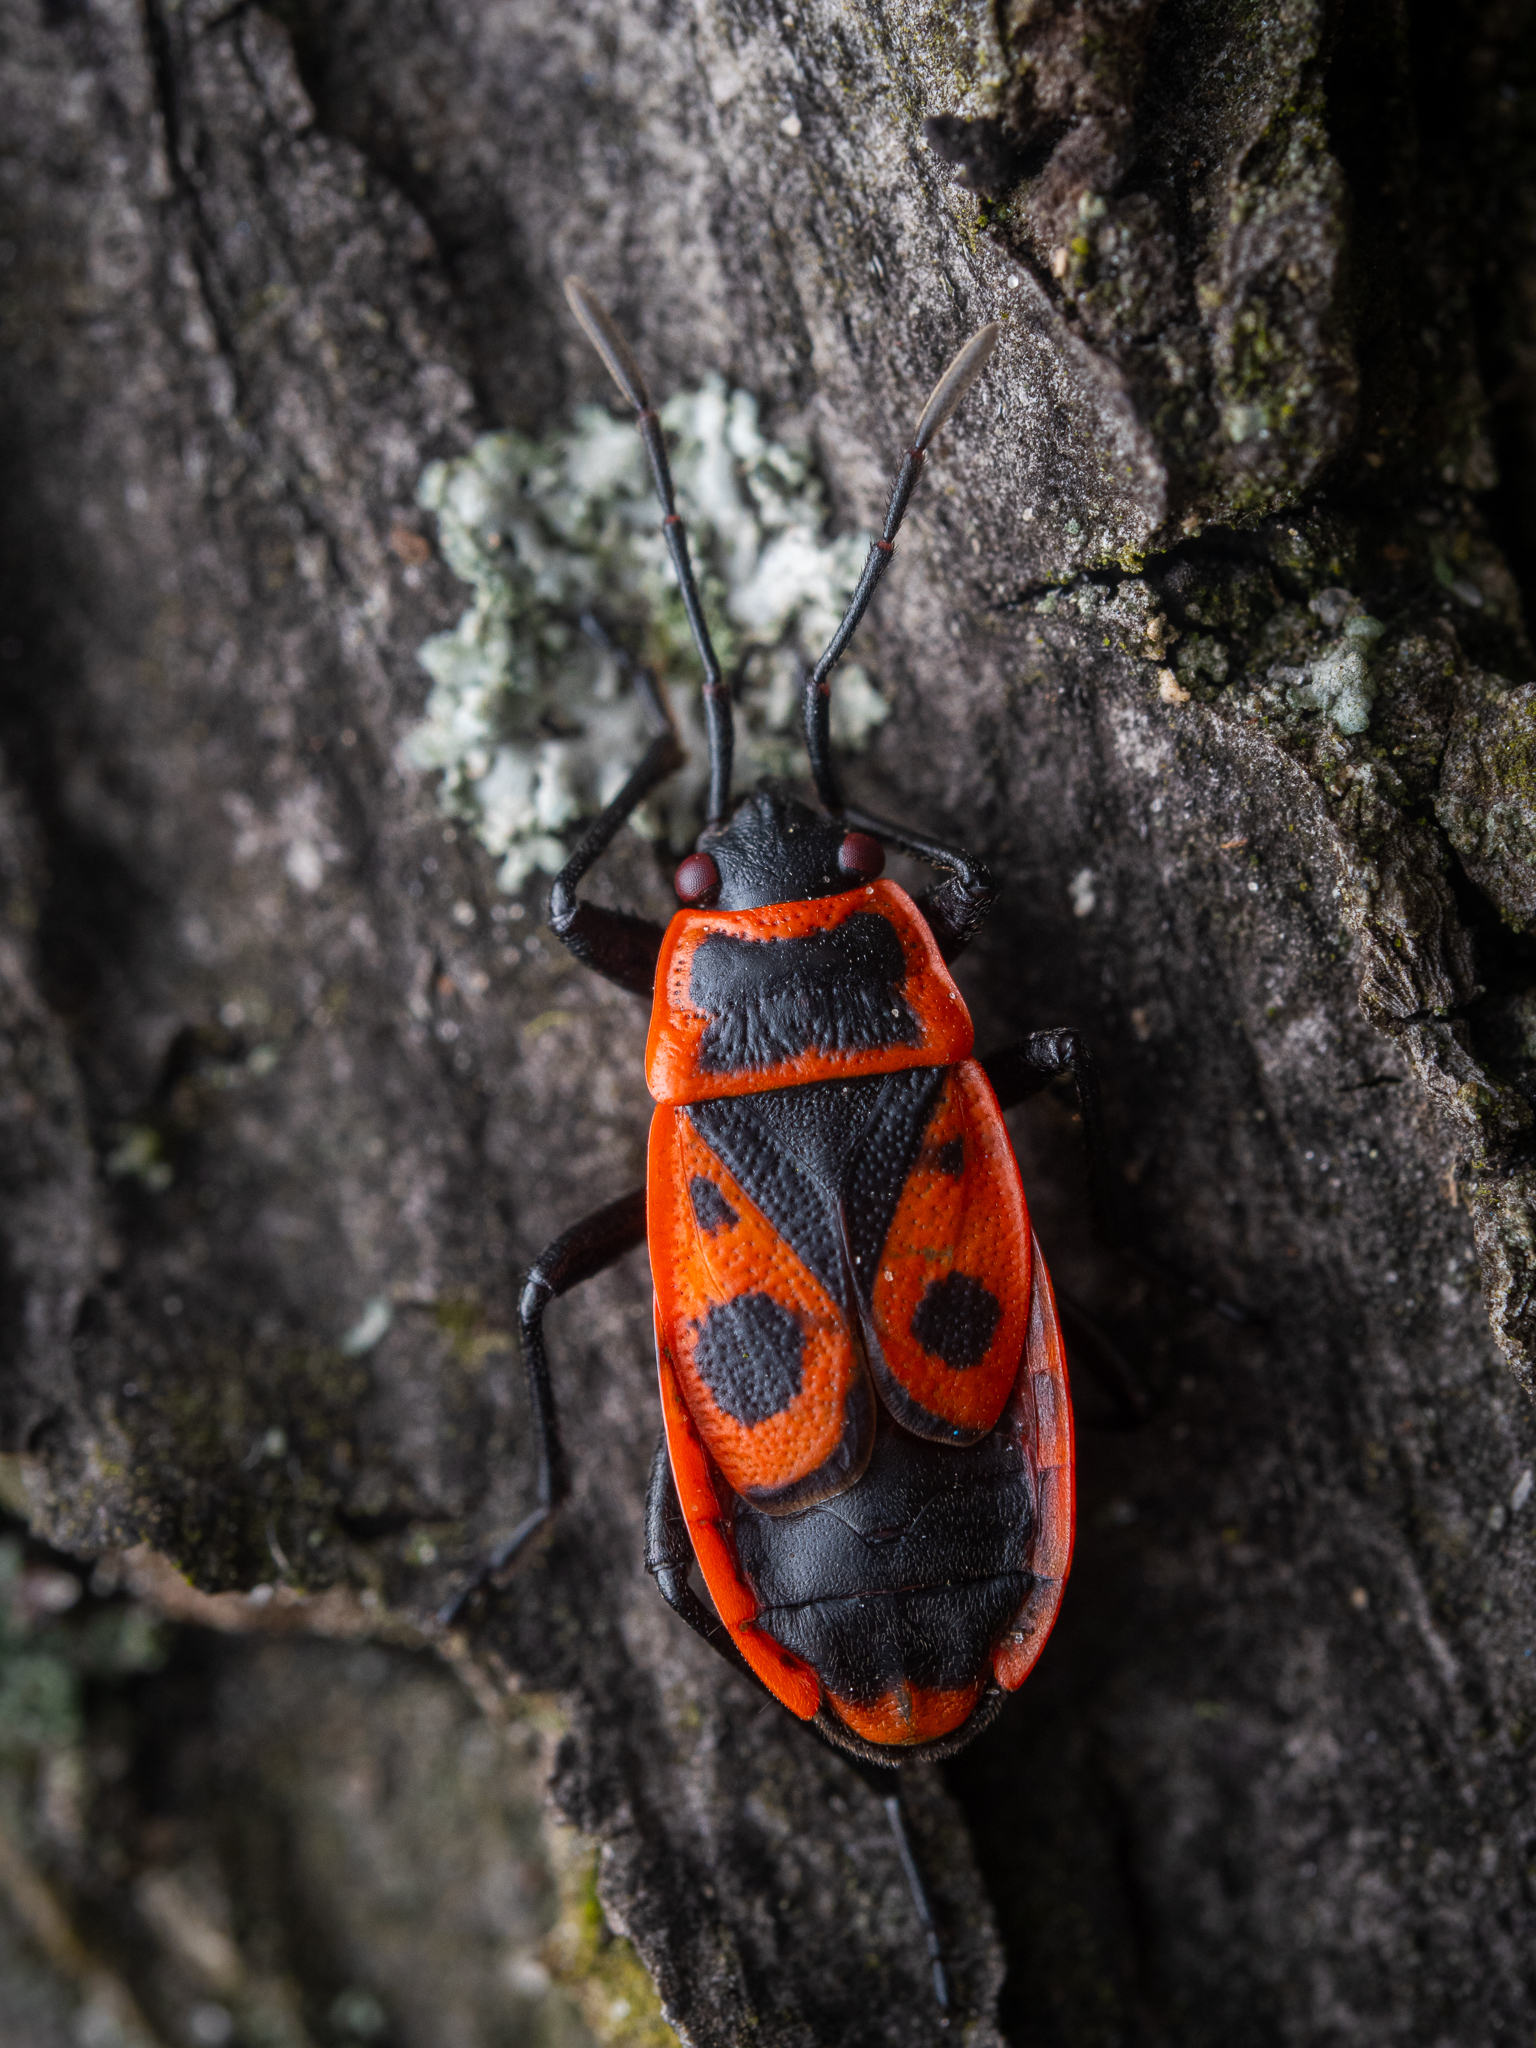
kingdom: Animalia
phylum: Arthropoda
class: Insecta
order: Hemiptera
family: Pyrrhocoridae
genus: Pyrrhocoris
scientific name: Pyrrhocoris apterus
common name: Firebug
